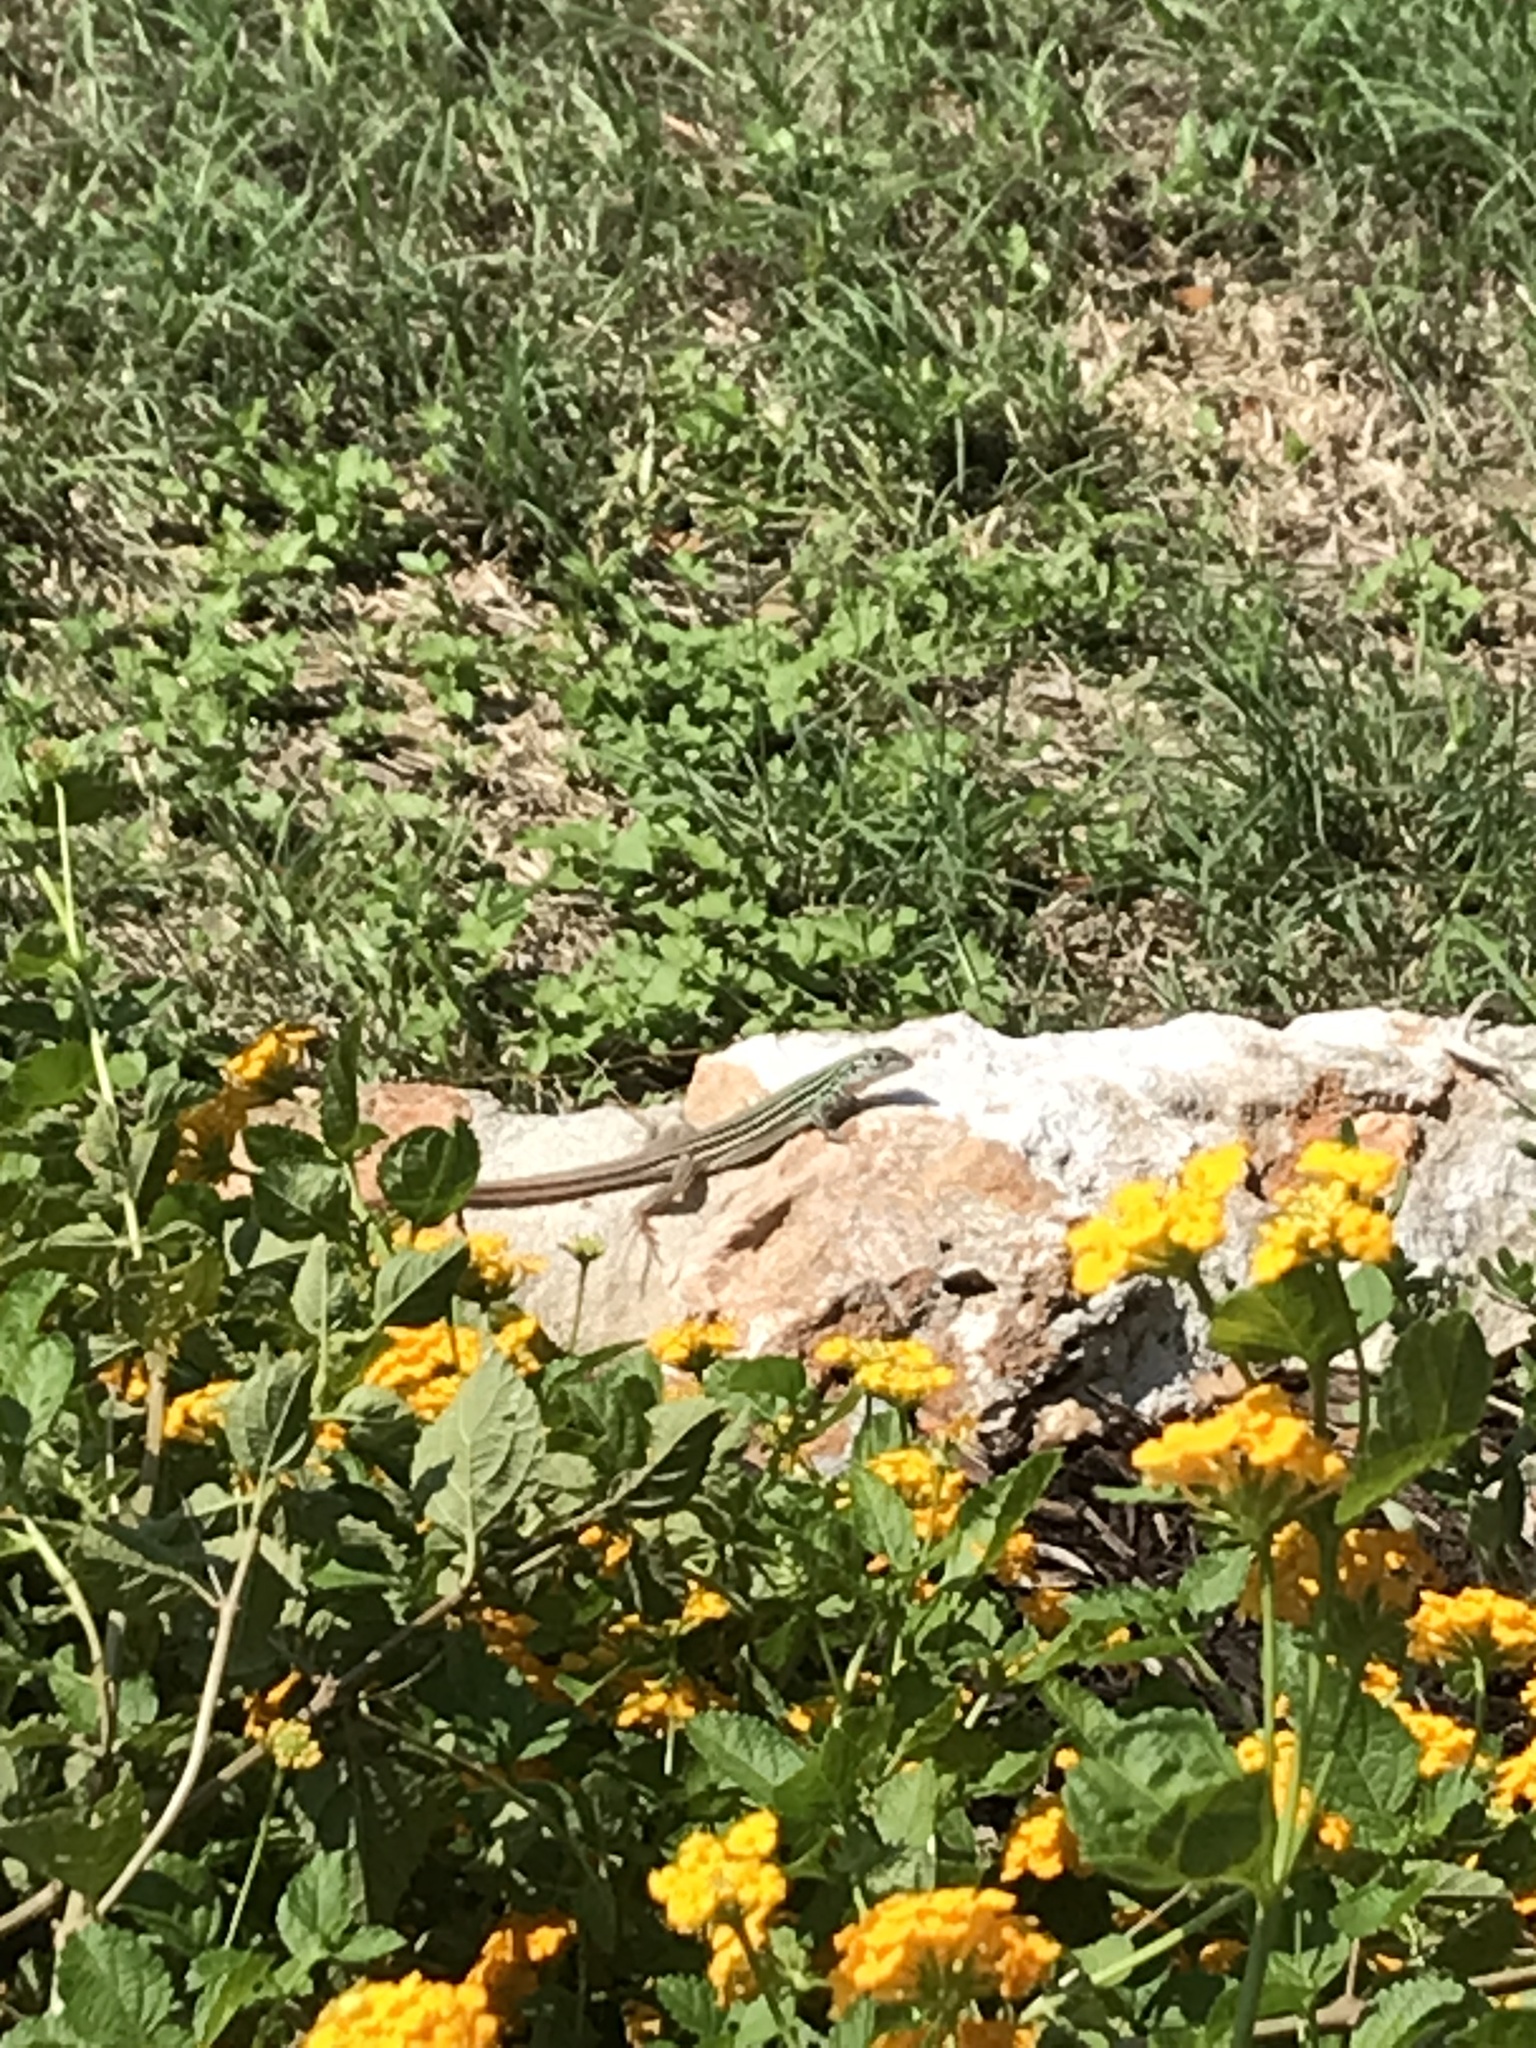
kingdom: Animalia
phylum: Chordata
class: Squamata
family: Teiidae
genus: Aspidoscelis
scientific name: Aspidoscelis gularis
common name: Eastern spotted whiptail
